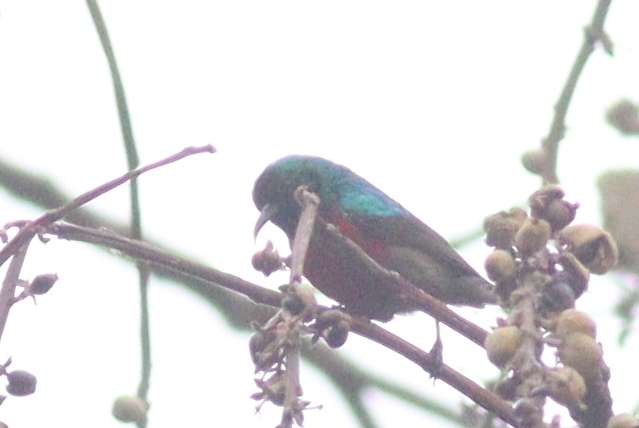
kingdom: Animalia
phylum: Chordata
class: Aves
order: Passeriformes
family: Nectariniidae
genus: Cinnyris
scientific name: Cinnyris reichenowi
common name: Northern double-collared sunbird
